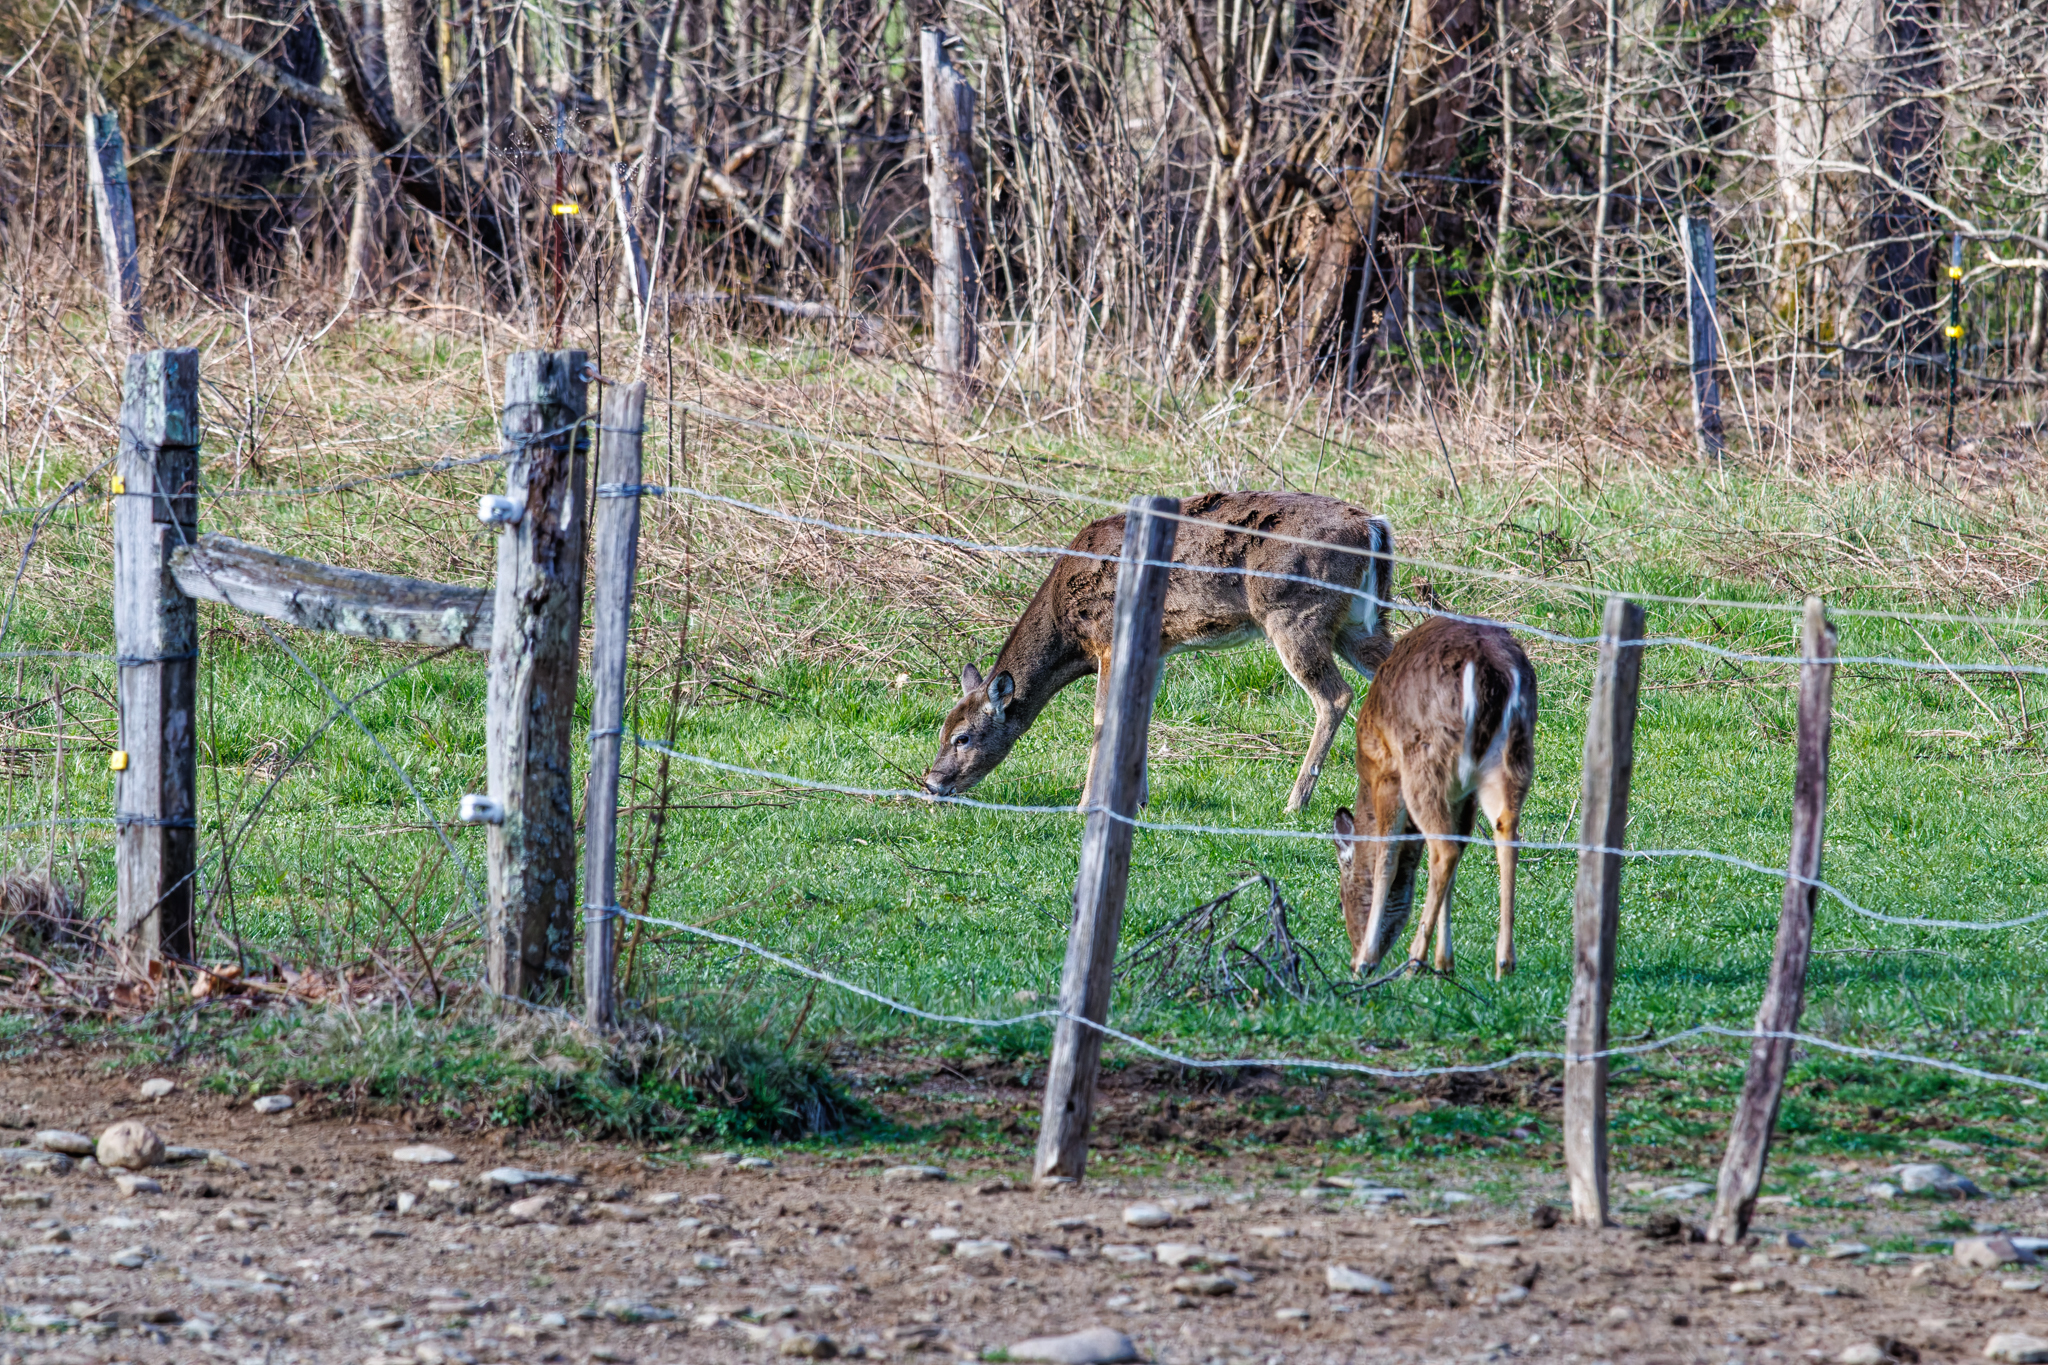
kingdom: Animalia
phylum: Chordata
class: Mammalia
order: Artiodactyla
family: Cervidae
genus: Odocoileus
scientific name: Odocoileus virginianus
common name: White-tailed deer
